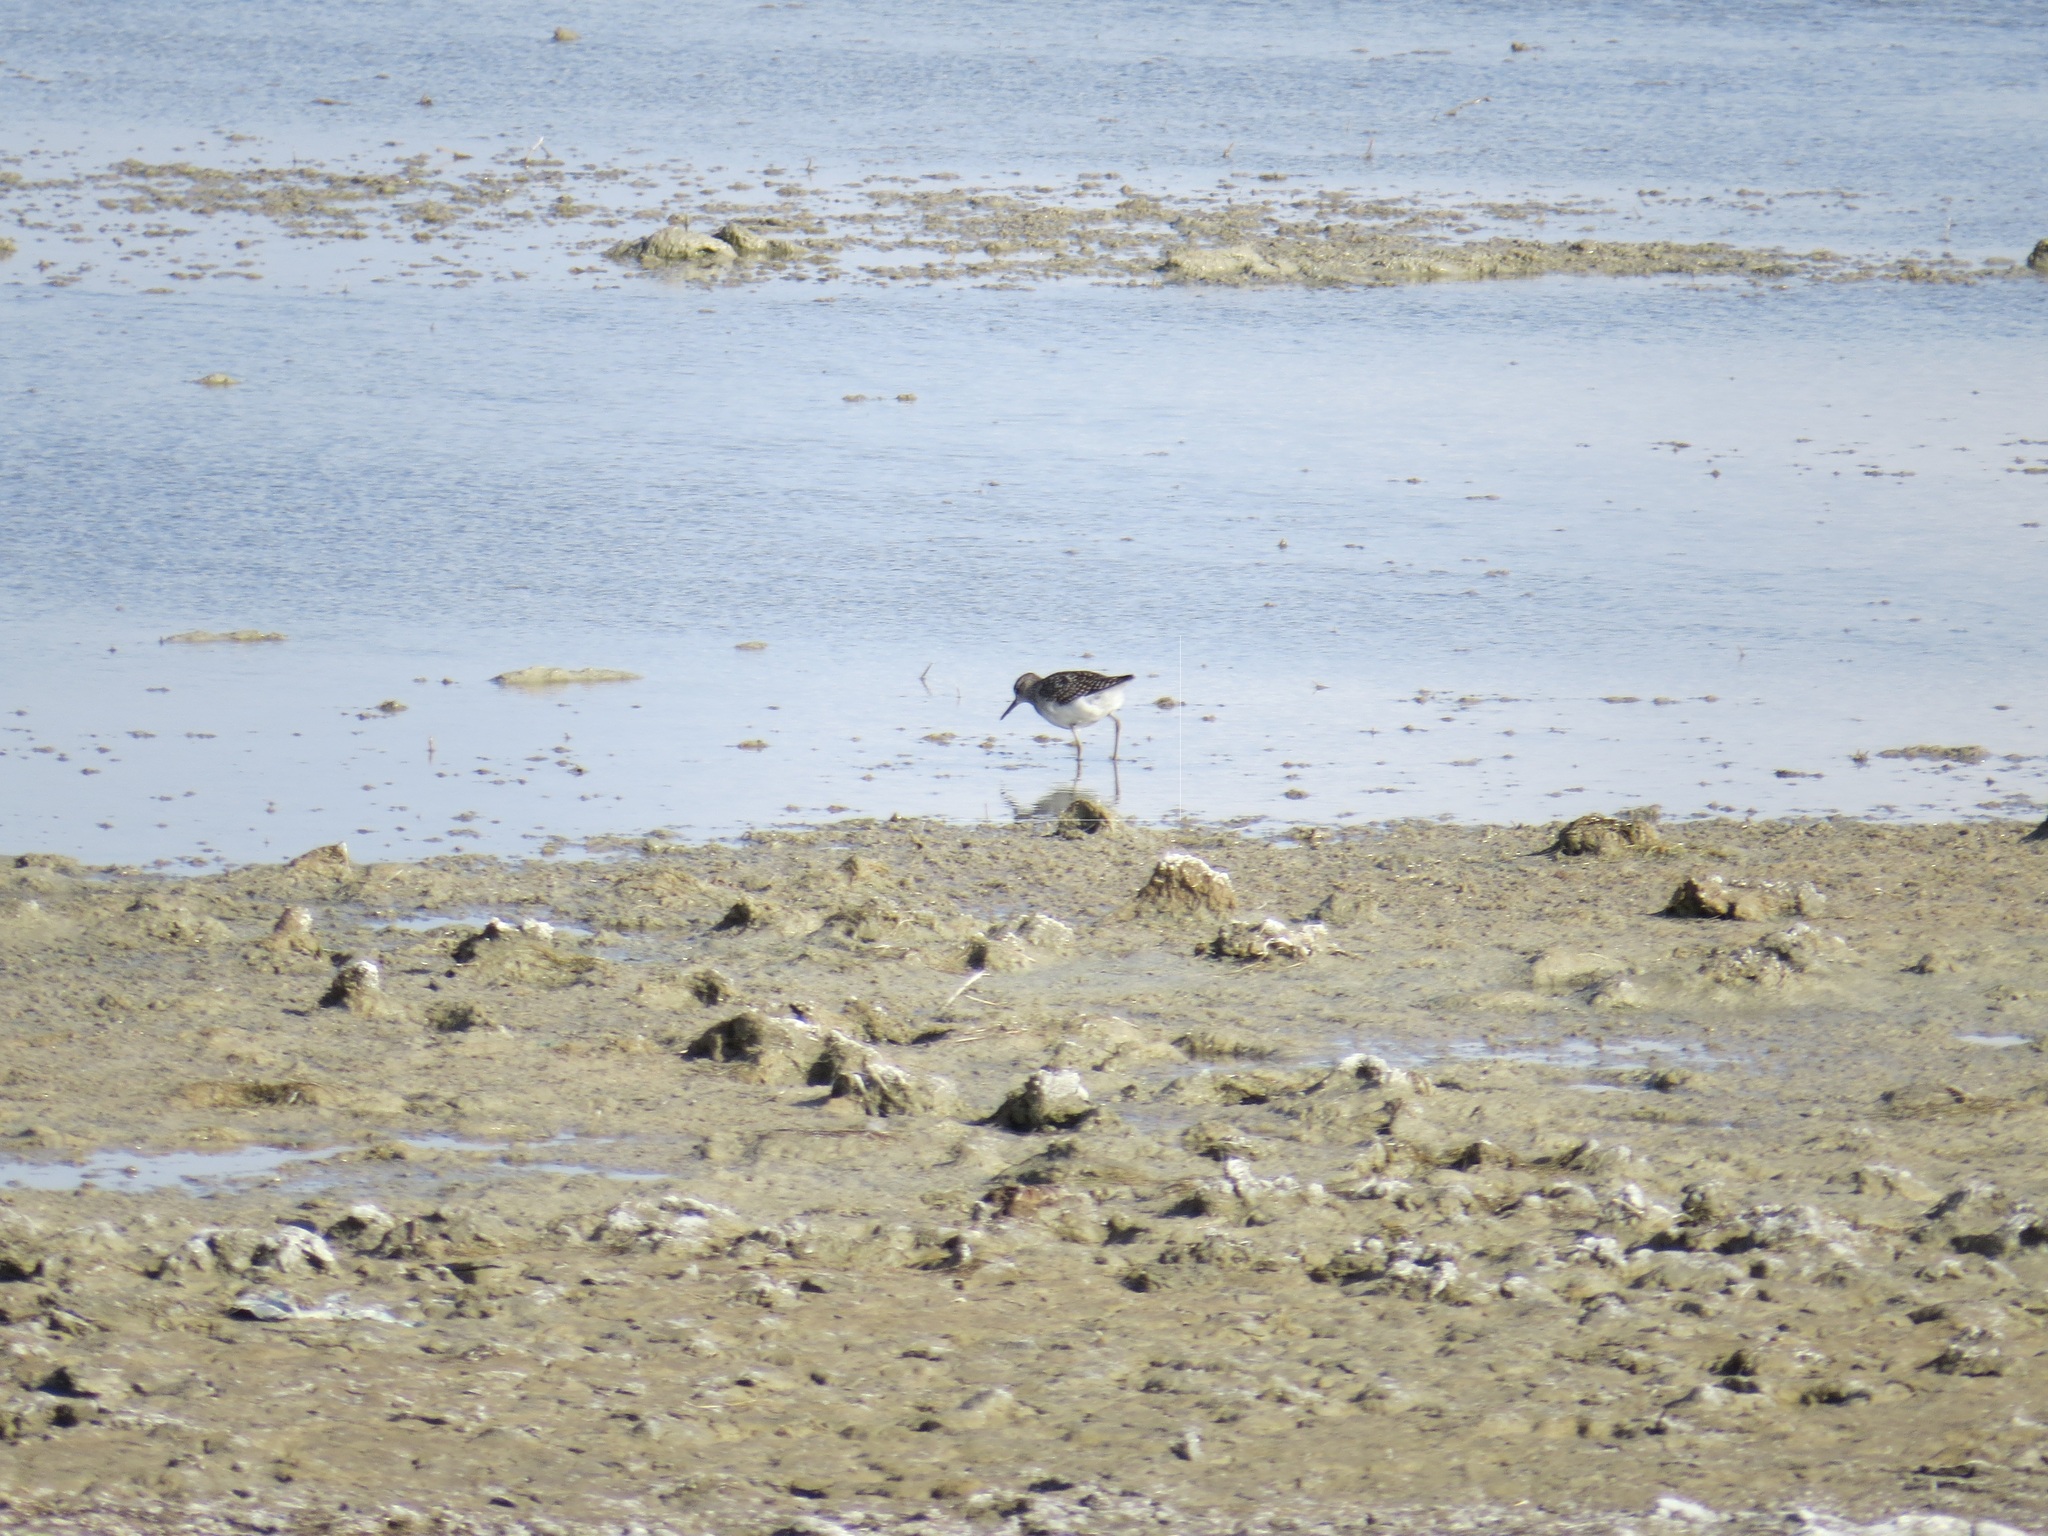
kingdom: Animalia
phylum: Chordata
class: Aves
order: Charadriiformes
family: Scolopacidae
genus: Tringa
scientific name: Tringa glareola
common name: Wood sandpiper
